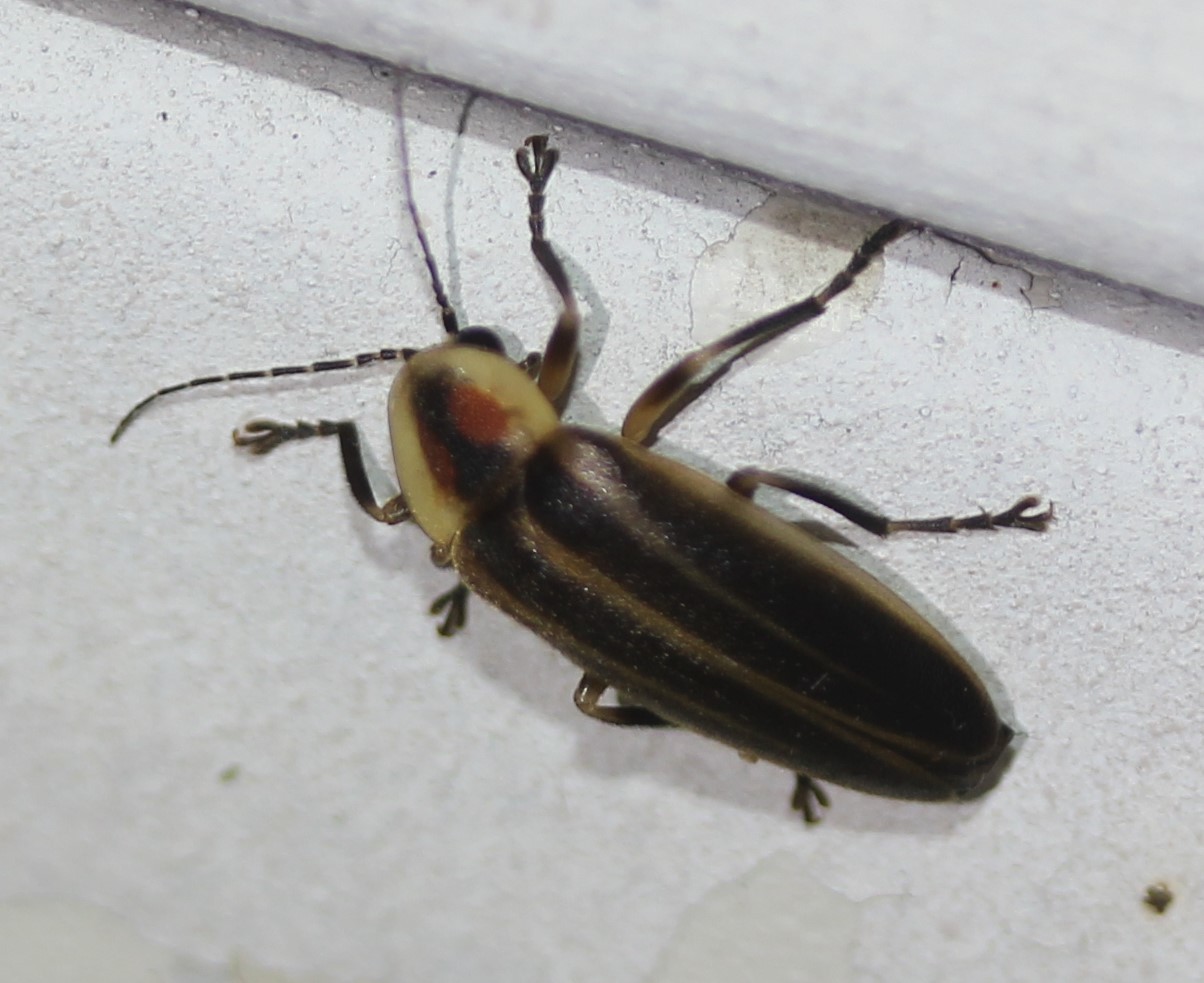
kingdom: Animalia
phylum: Arthropoda
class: Insecta
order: Coleoptera
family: Lampyridae
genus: Photuris
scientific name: Photuris
